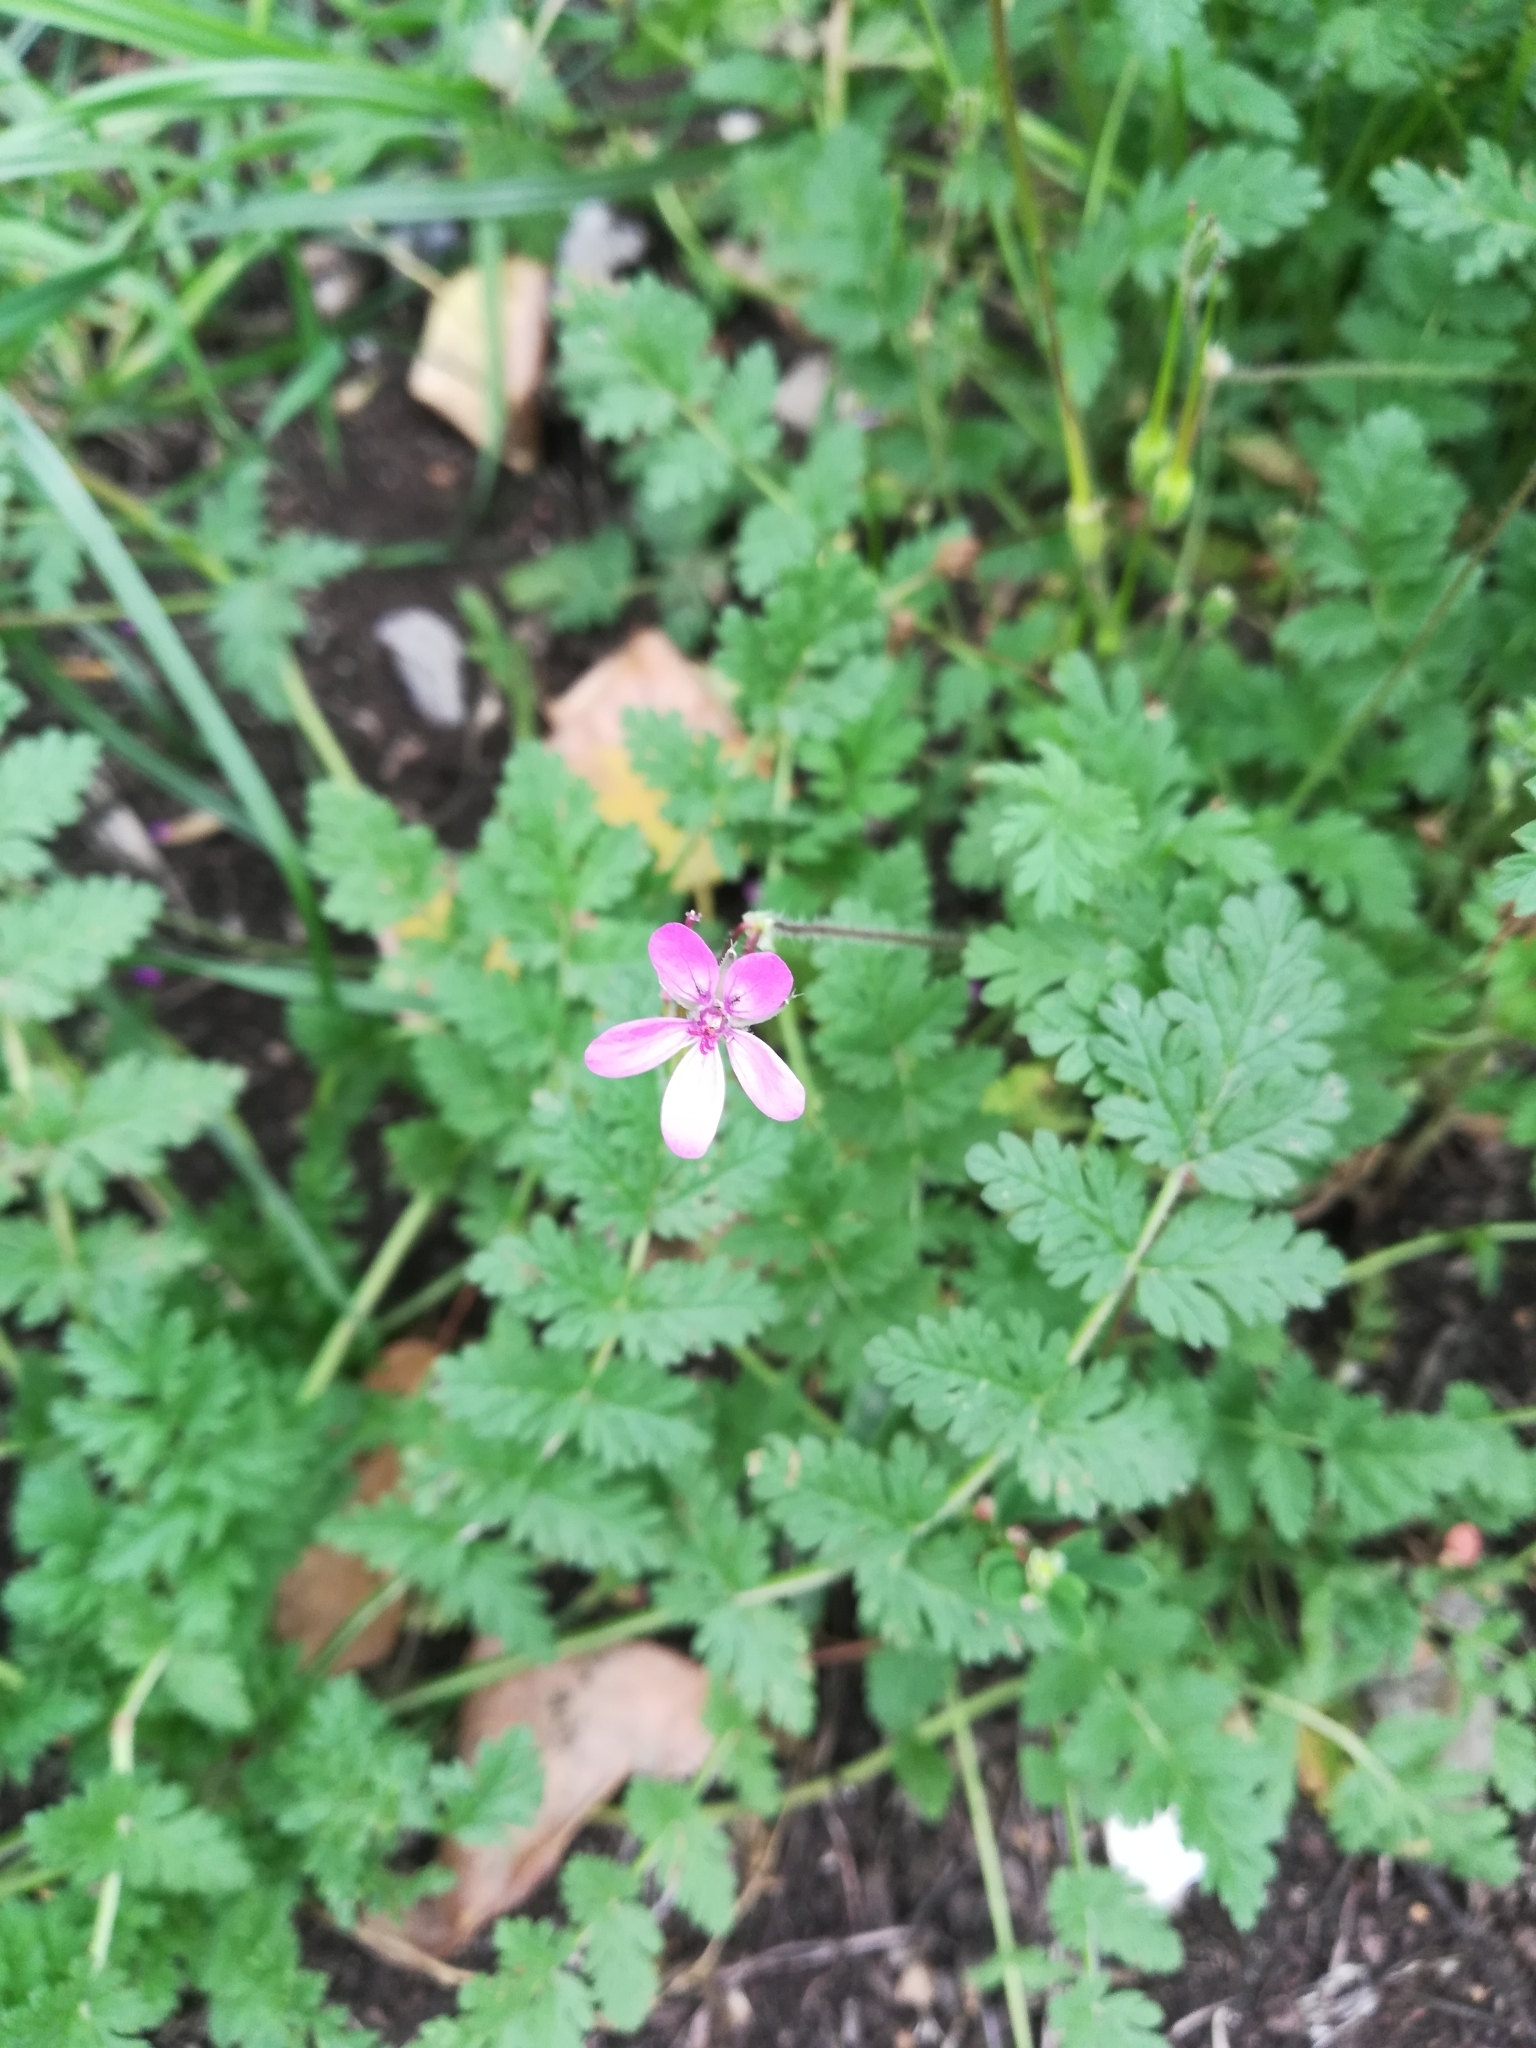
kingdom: Plantae
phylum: Tracheophyta
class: Magnoliopsida
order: Geraniales
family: Geraniaceae
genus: Erodium
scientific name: Erodium cicutarium
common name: Common stork's-bill
